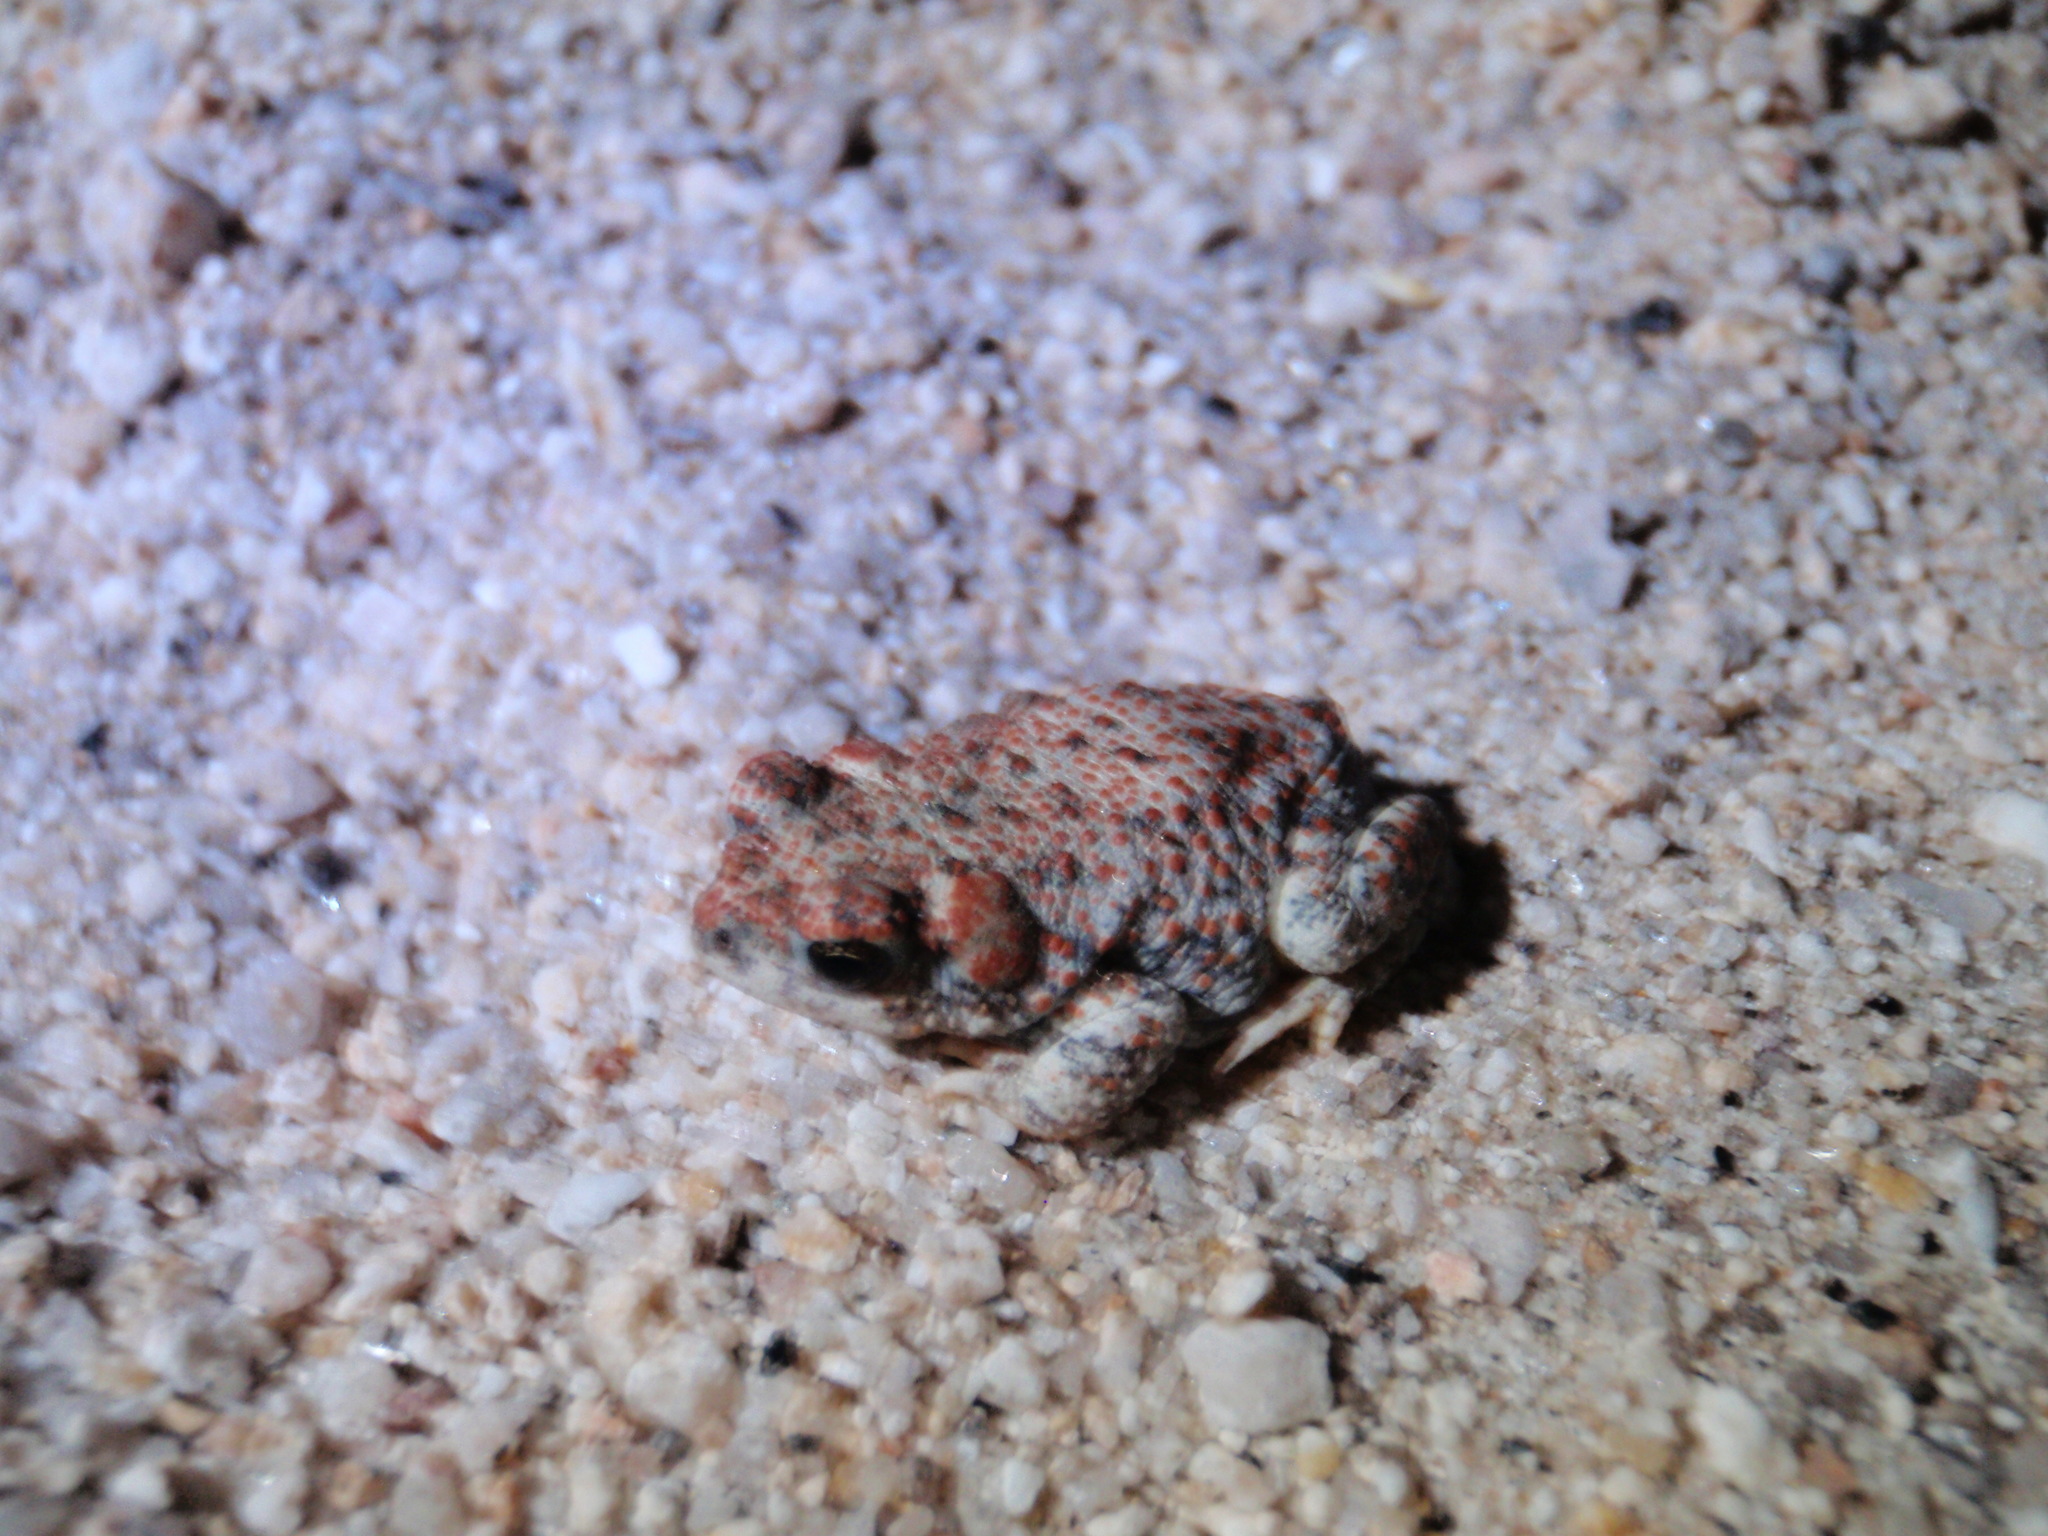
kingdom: Animalia
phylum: Chordata
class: Amphibia
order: Anura
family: Bufonidae
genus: Anaxyrus
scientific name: Anaxyrus punctatus
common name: Red-spotted toad
